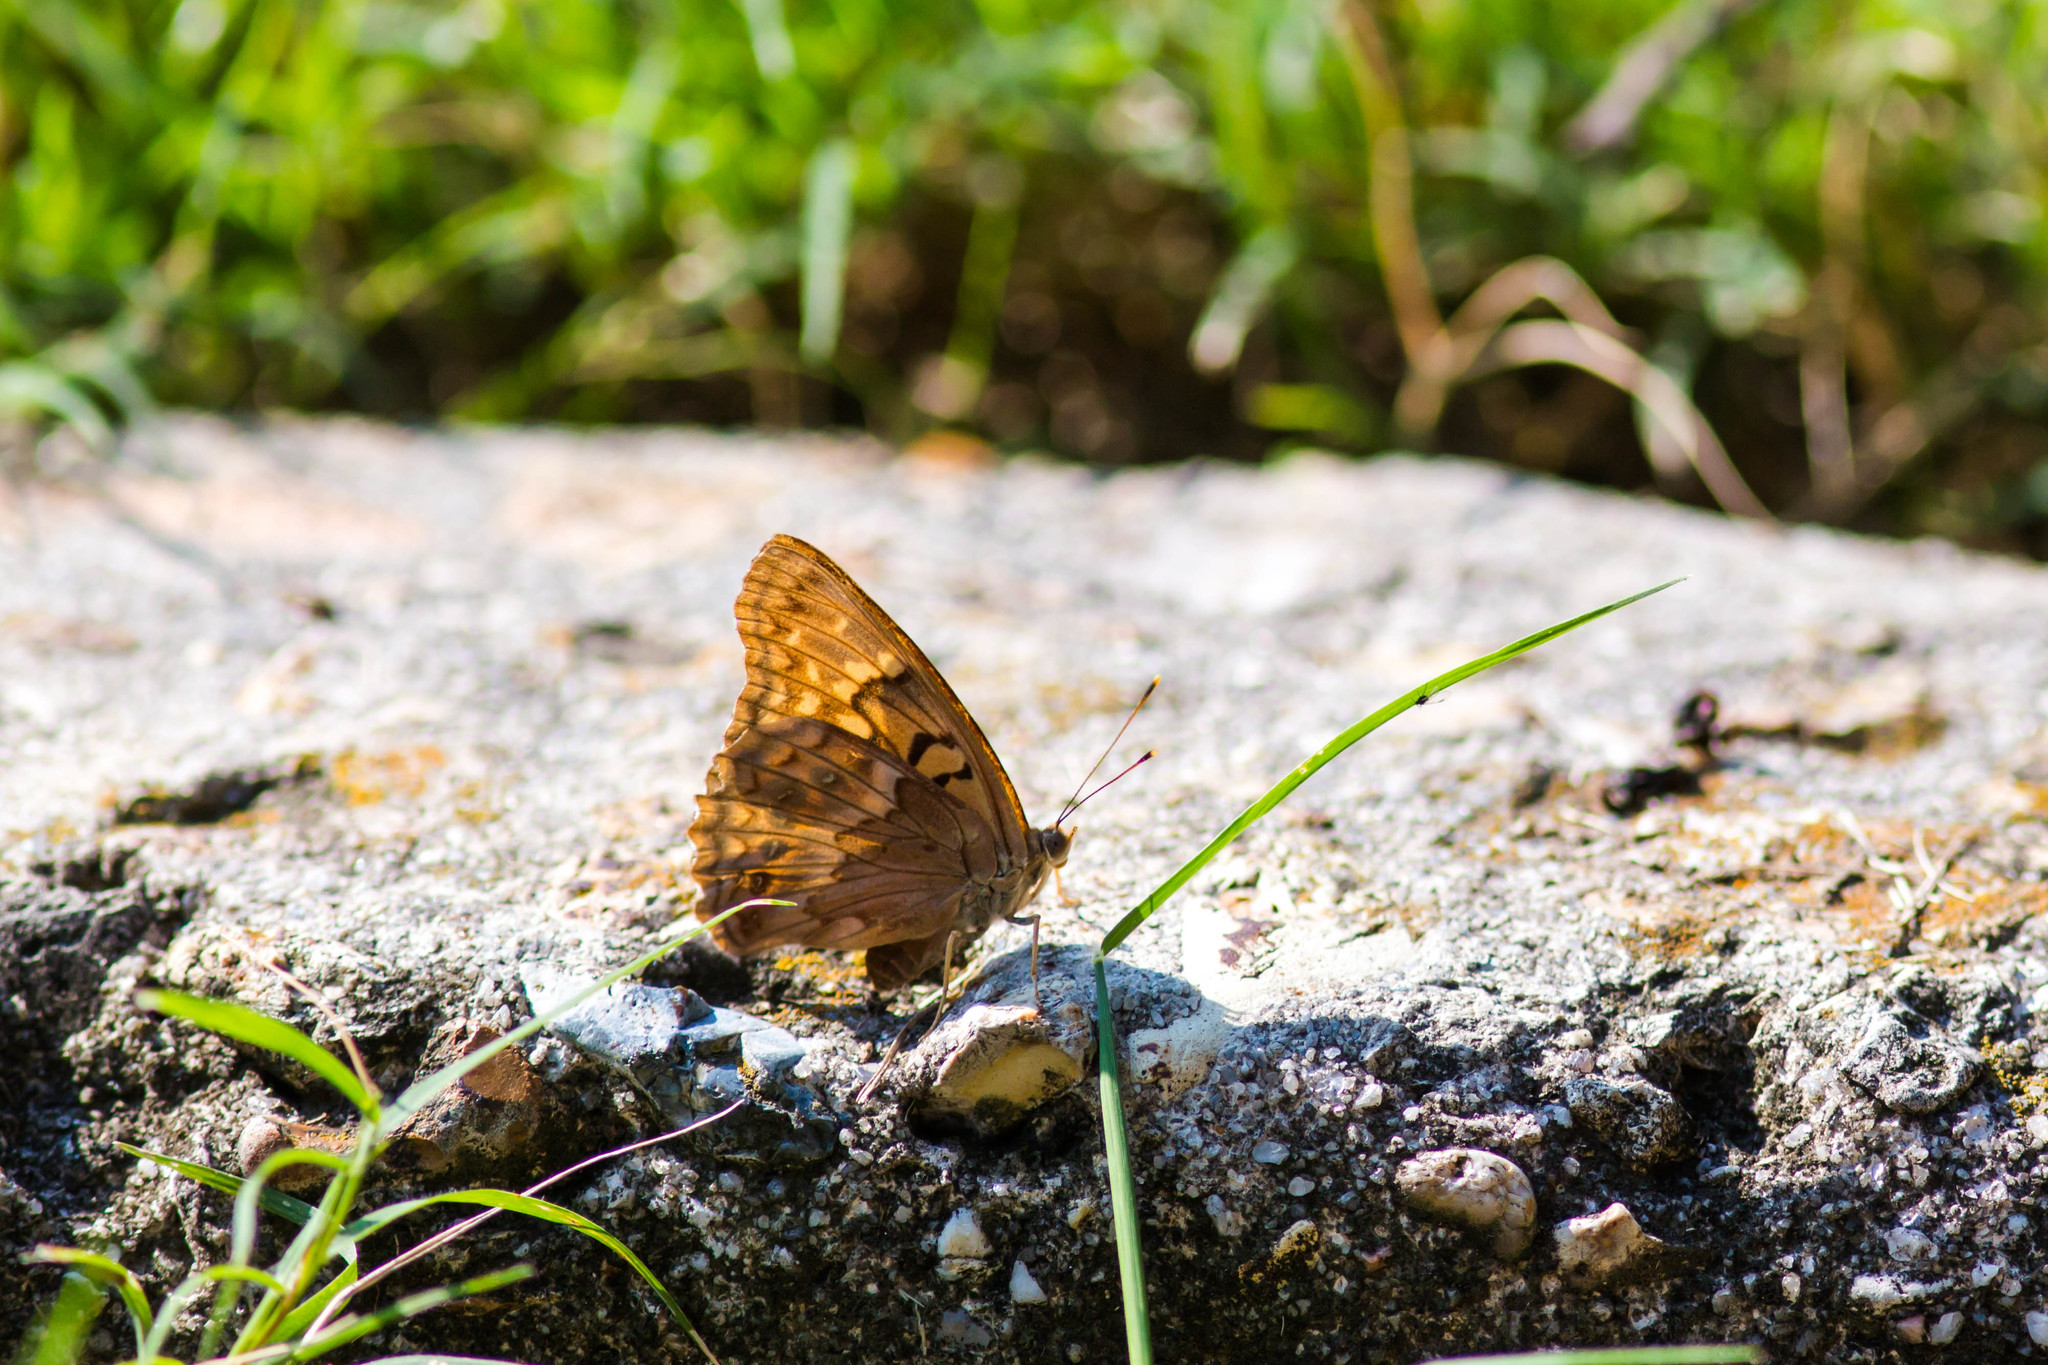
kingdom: Animalia
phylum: Arthropoda
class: Insecta
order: Lepidoptera
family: Nymphalidae
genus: Asterocampa
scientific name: Asterocampa clyton
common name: Tawny emperor
